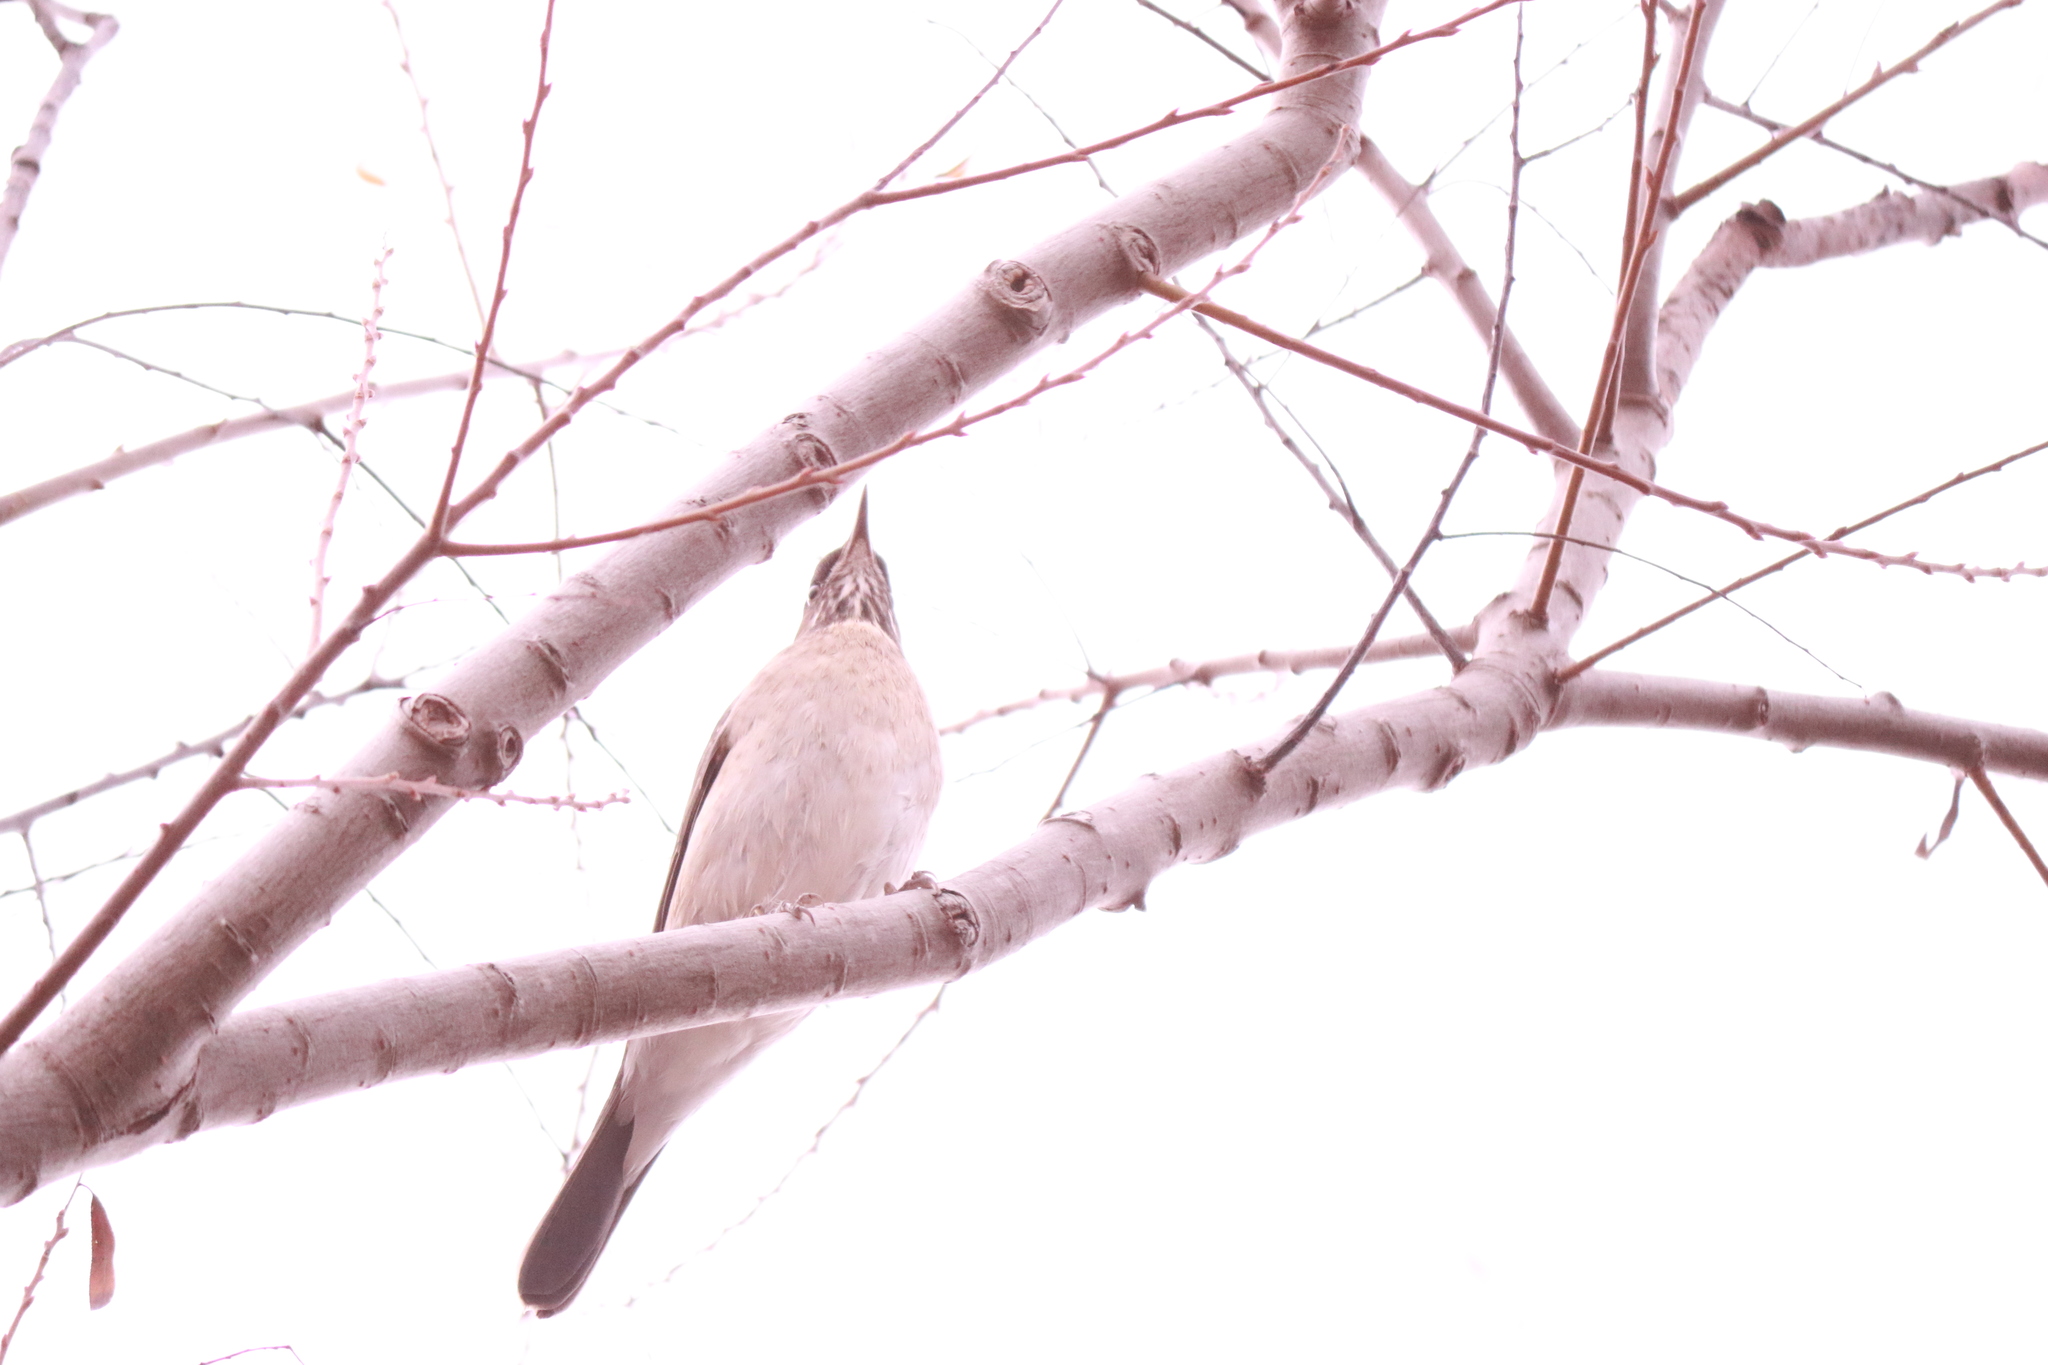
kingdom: Animalia
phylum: Chordata
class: Aves
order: Passeriformes
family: Turdidae
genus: Turdus
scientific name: Turdus amaurochalinus
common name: Creamy-bellied thrush
